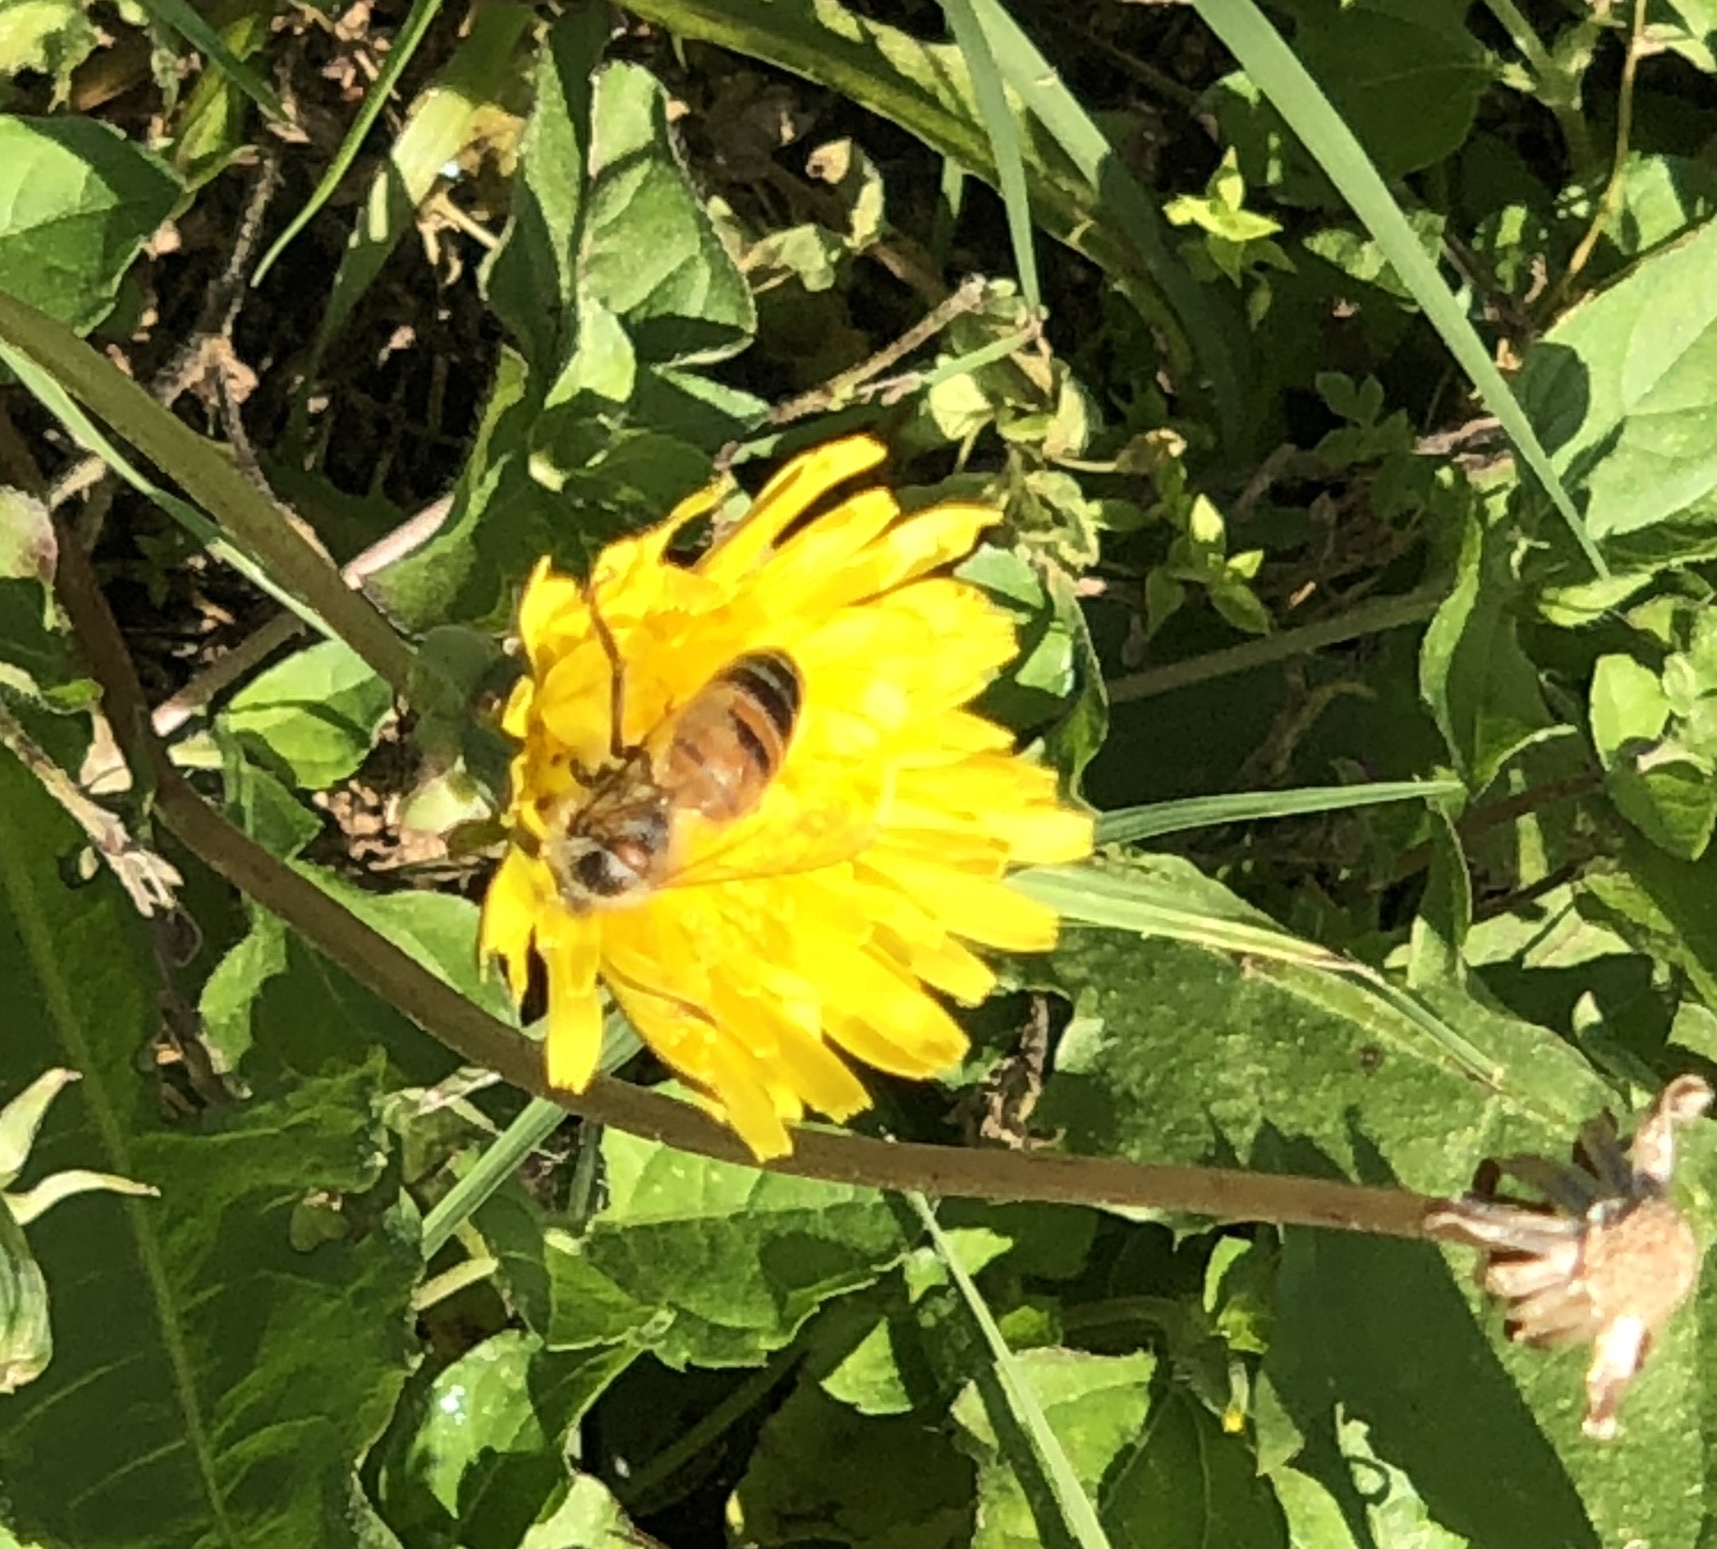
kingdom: Animalia
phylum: Arthropoda
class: Insecta
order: Hymenoptera
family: Apidae
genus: Apis
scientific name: Apis mellifera
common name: Honey bee
